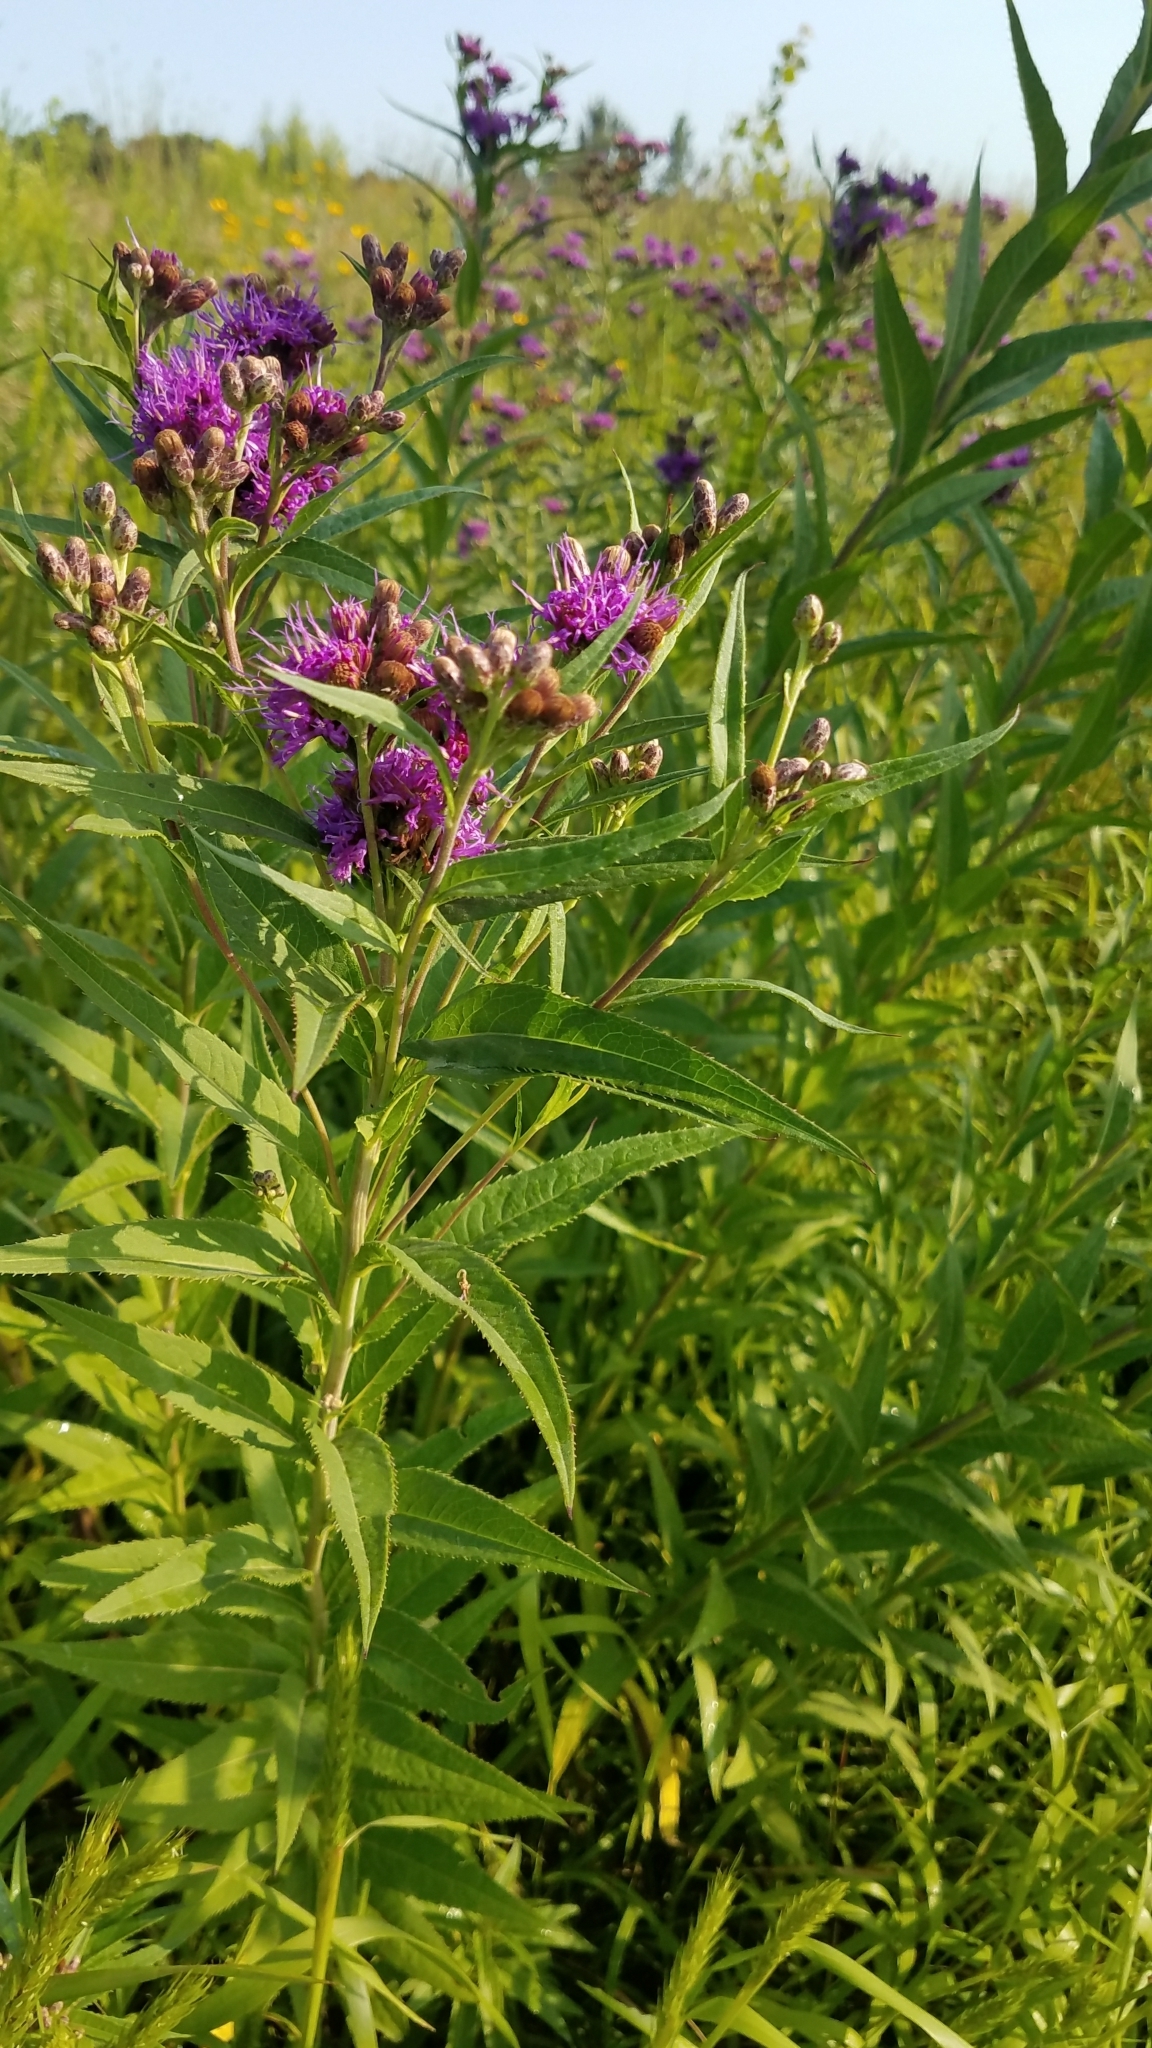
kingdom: Plantae
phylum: Tracheophyta
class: Magnoliopsida
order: Asterales
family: Asteraceae
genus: Vernonia
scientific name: Vernonia fasciculata
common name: Fascicled ironweed
